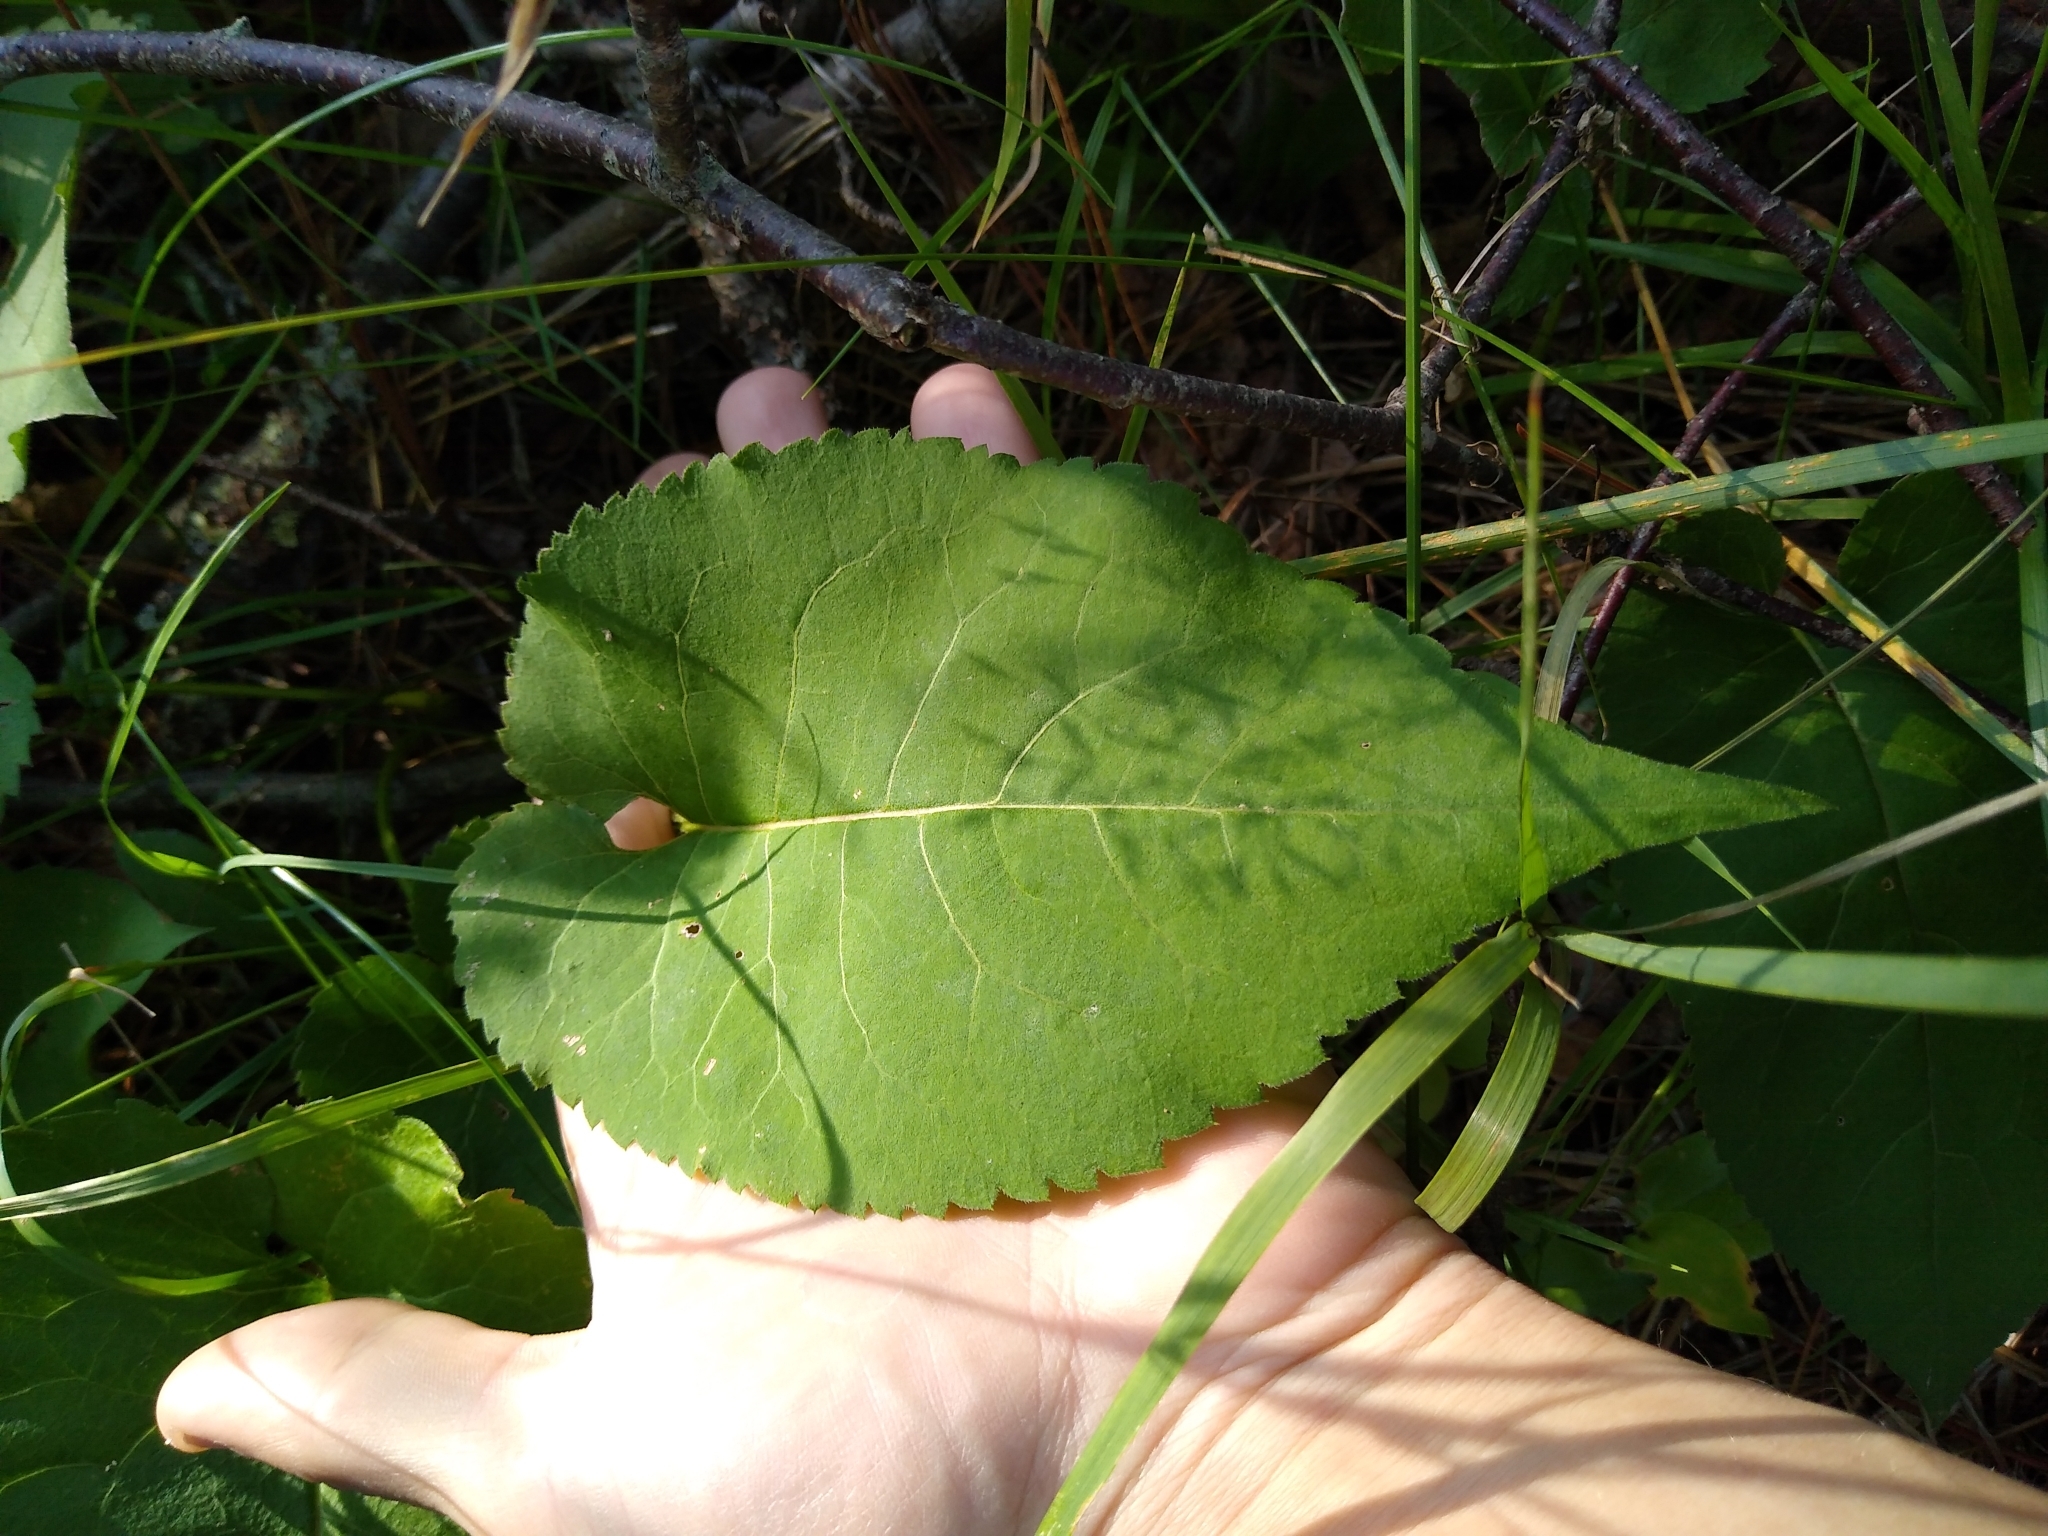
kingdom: Plantae
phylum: Tracheophyta
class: Magnoliopsida
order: Asterales
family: Asteraceae
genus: Eurybia
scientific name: Eurybia macrophylla
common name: Big-leaved aster
